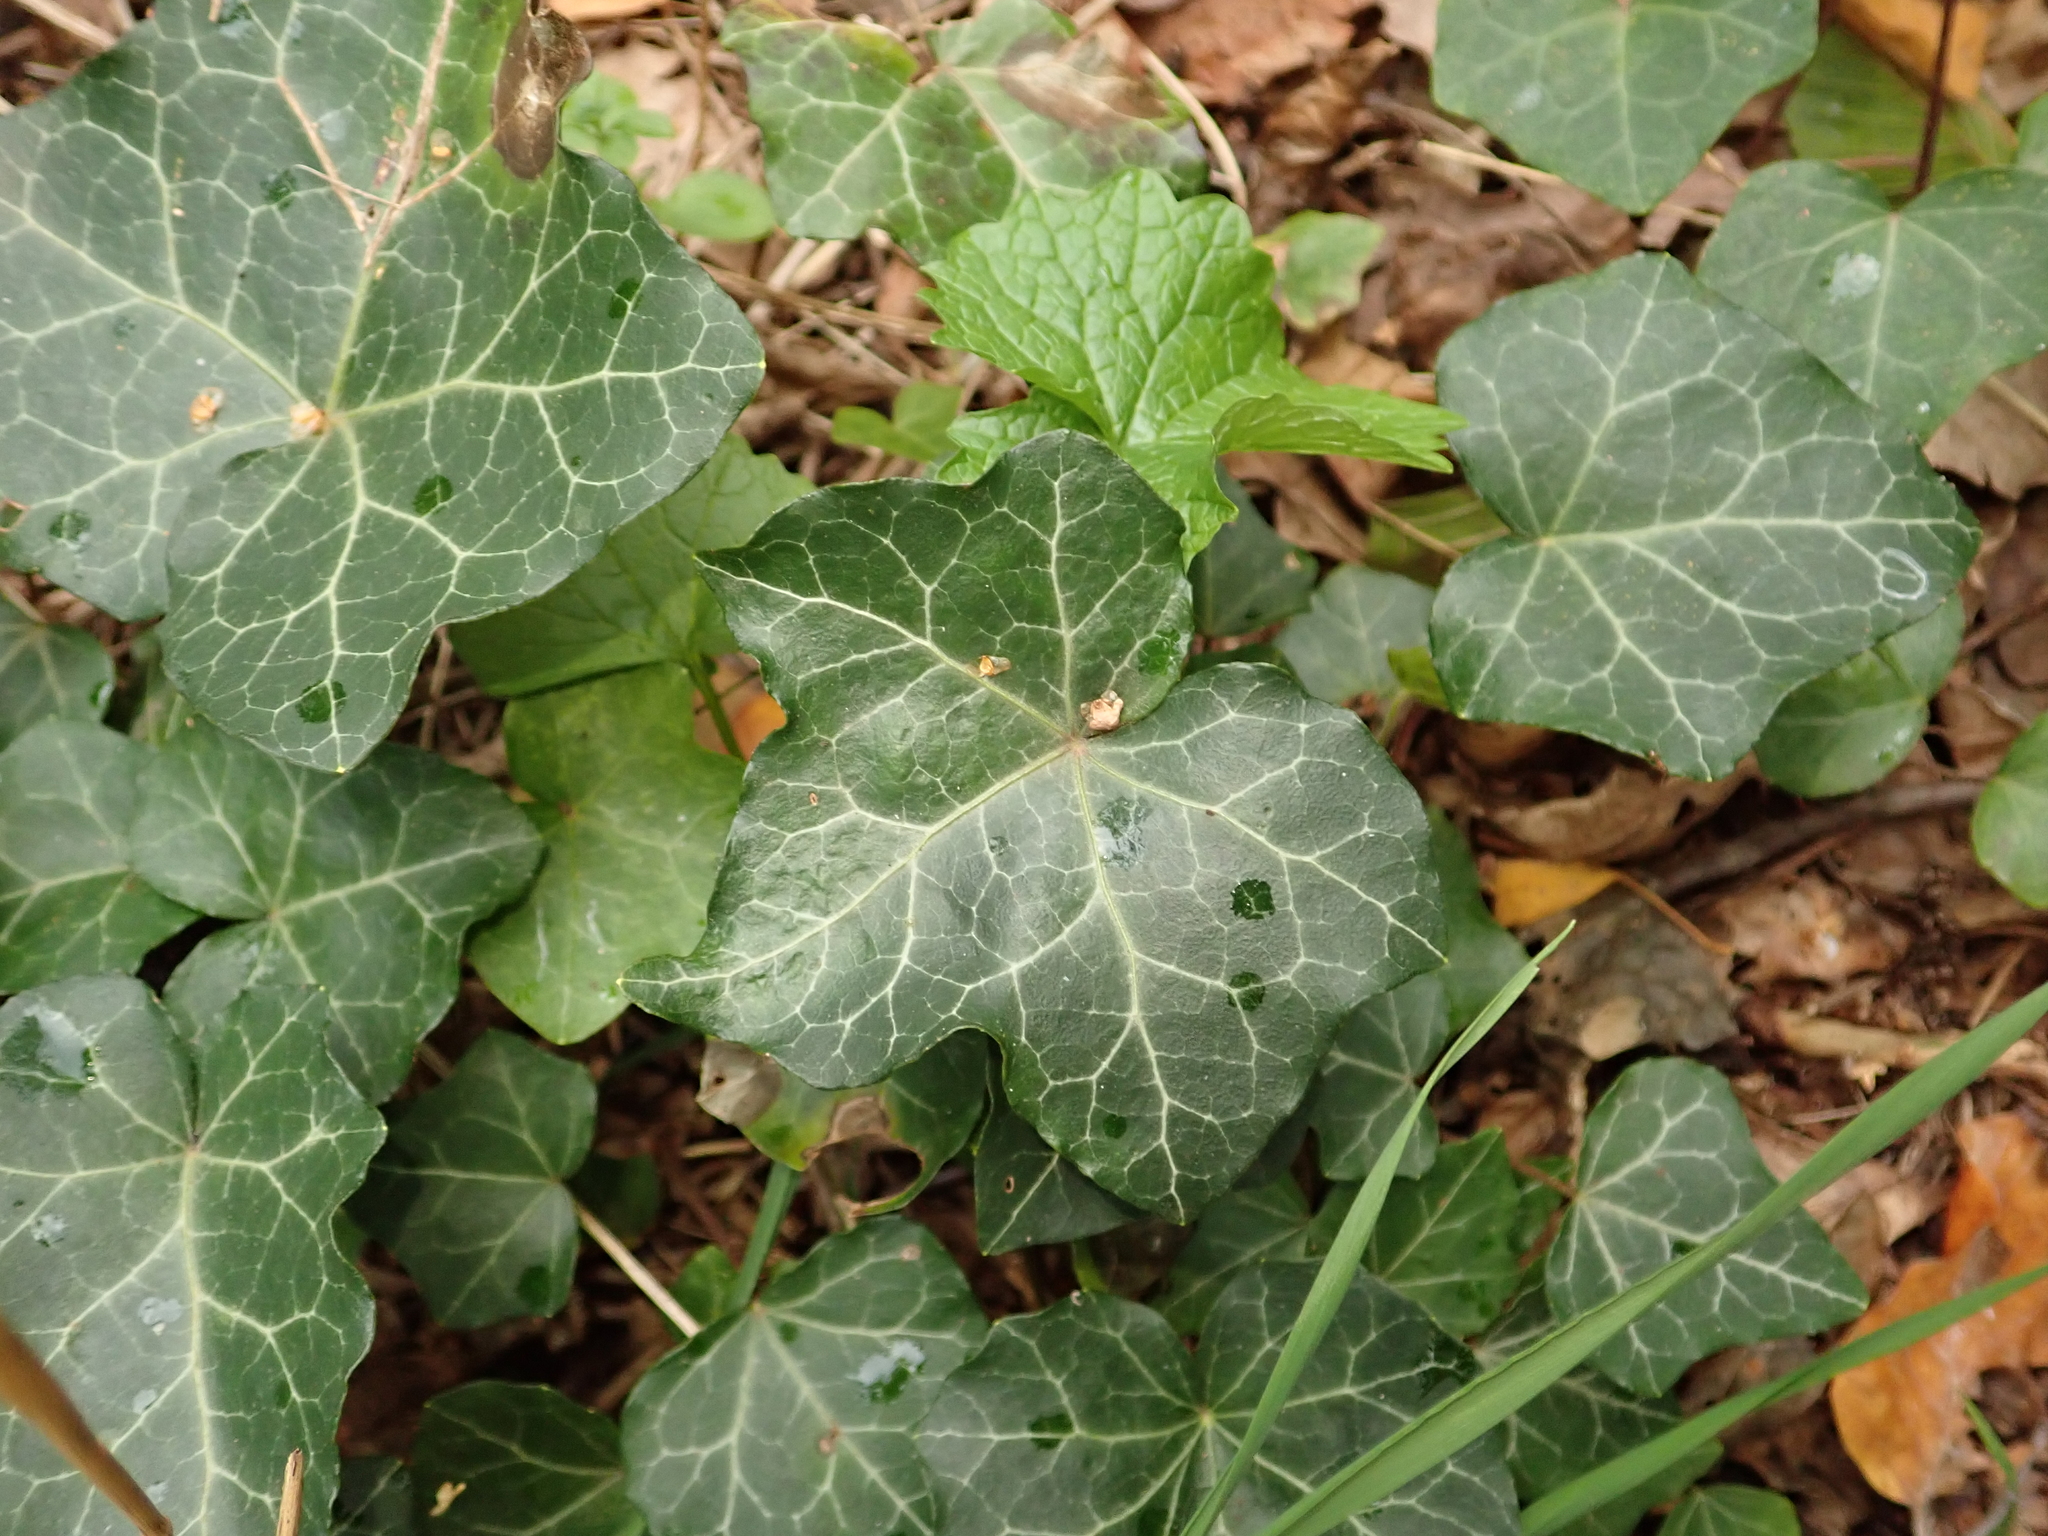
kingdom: Plantae
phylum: Tracheophyta
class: Magnoliopsida
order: Apiales
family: Araliaceae
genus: Hedera
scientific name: Hedera helix
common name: Ivy
